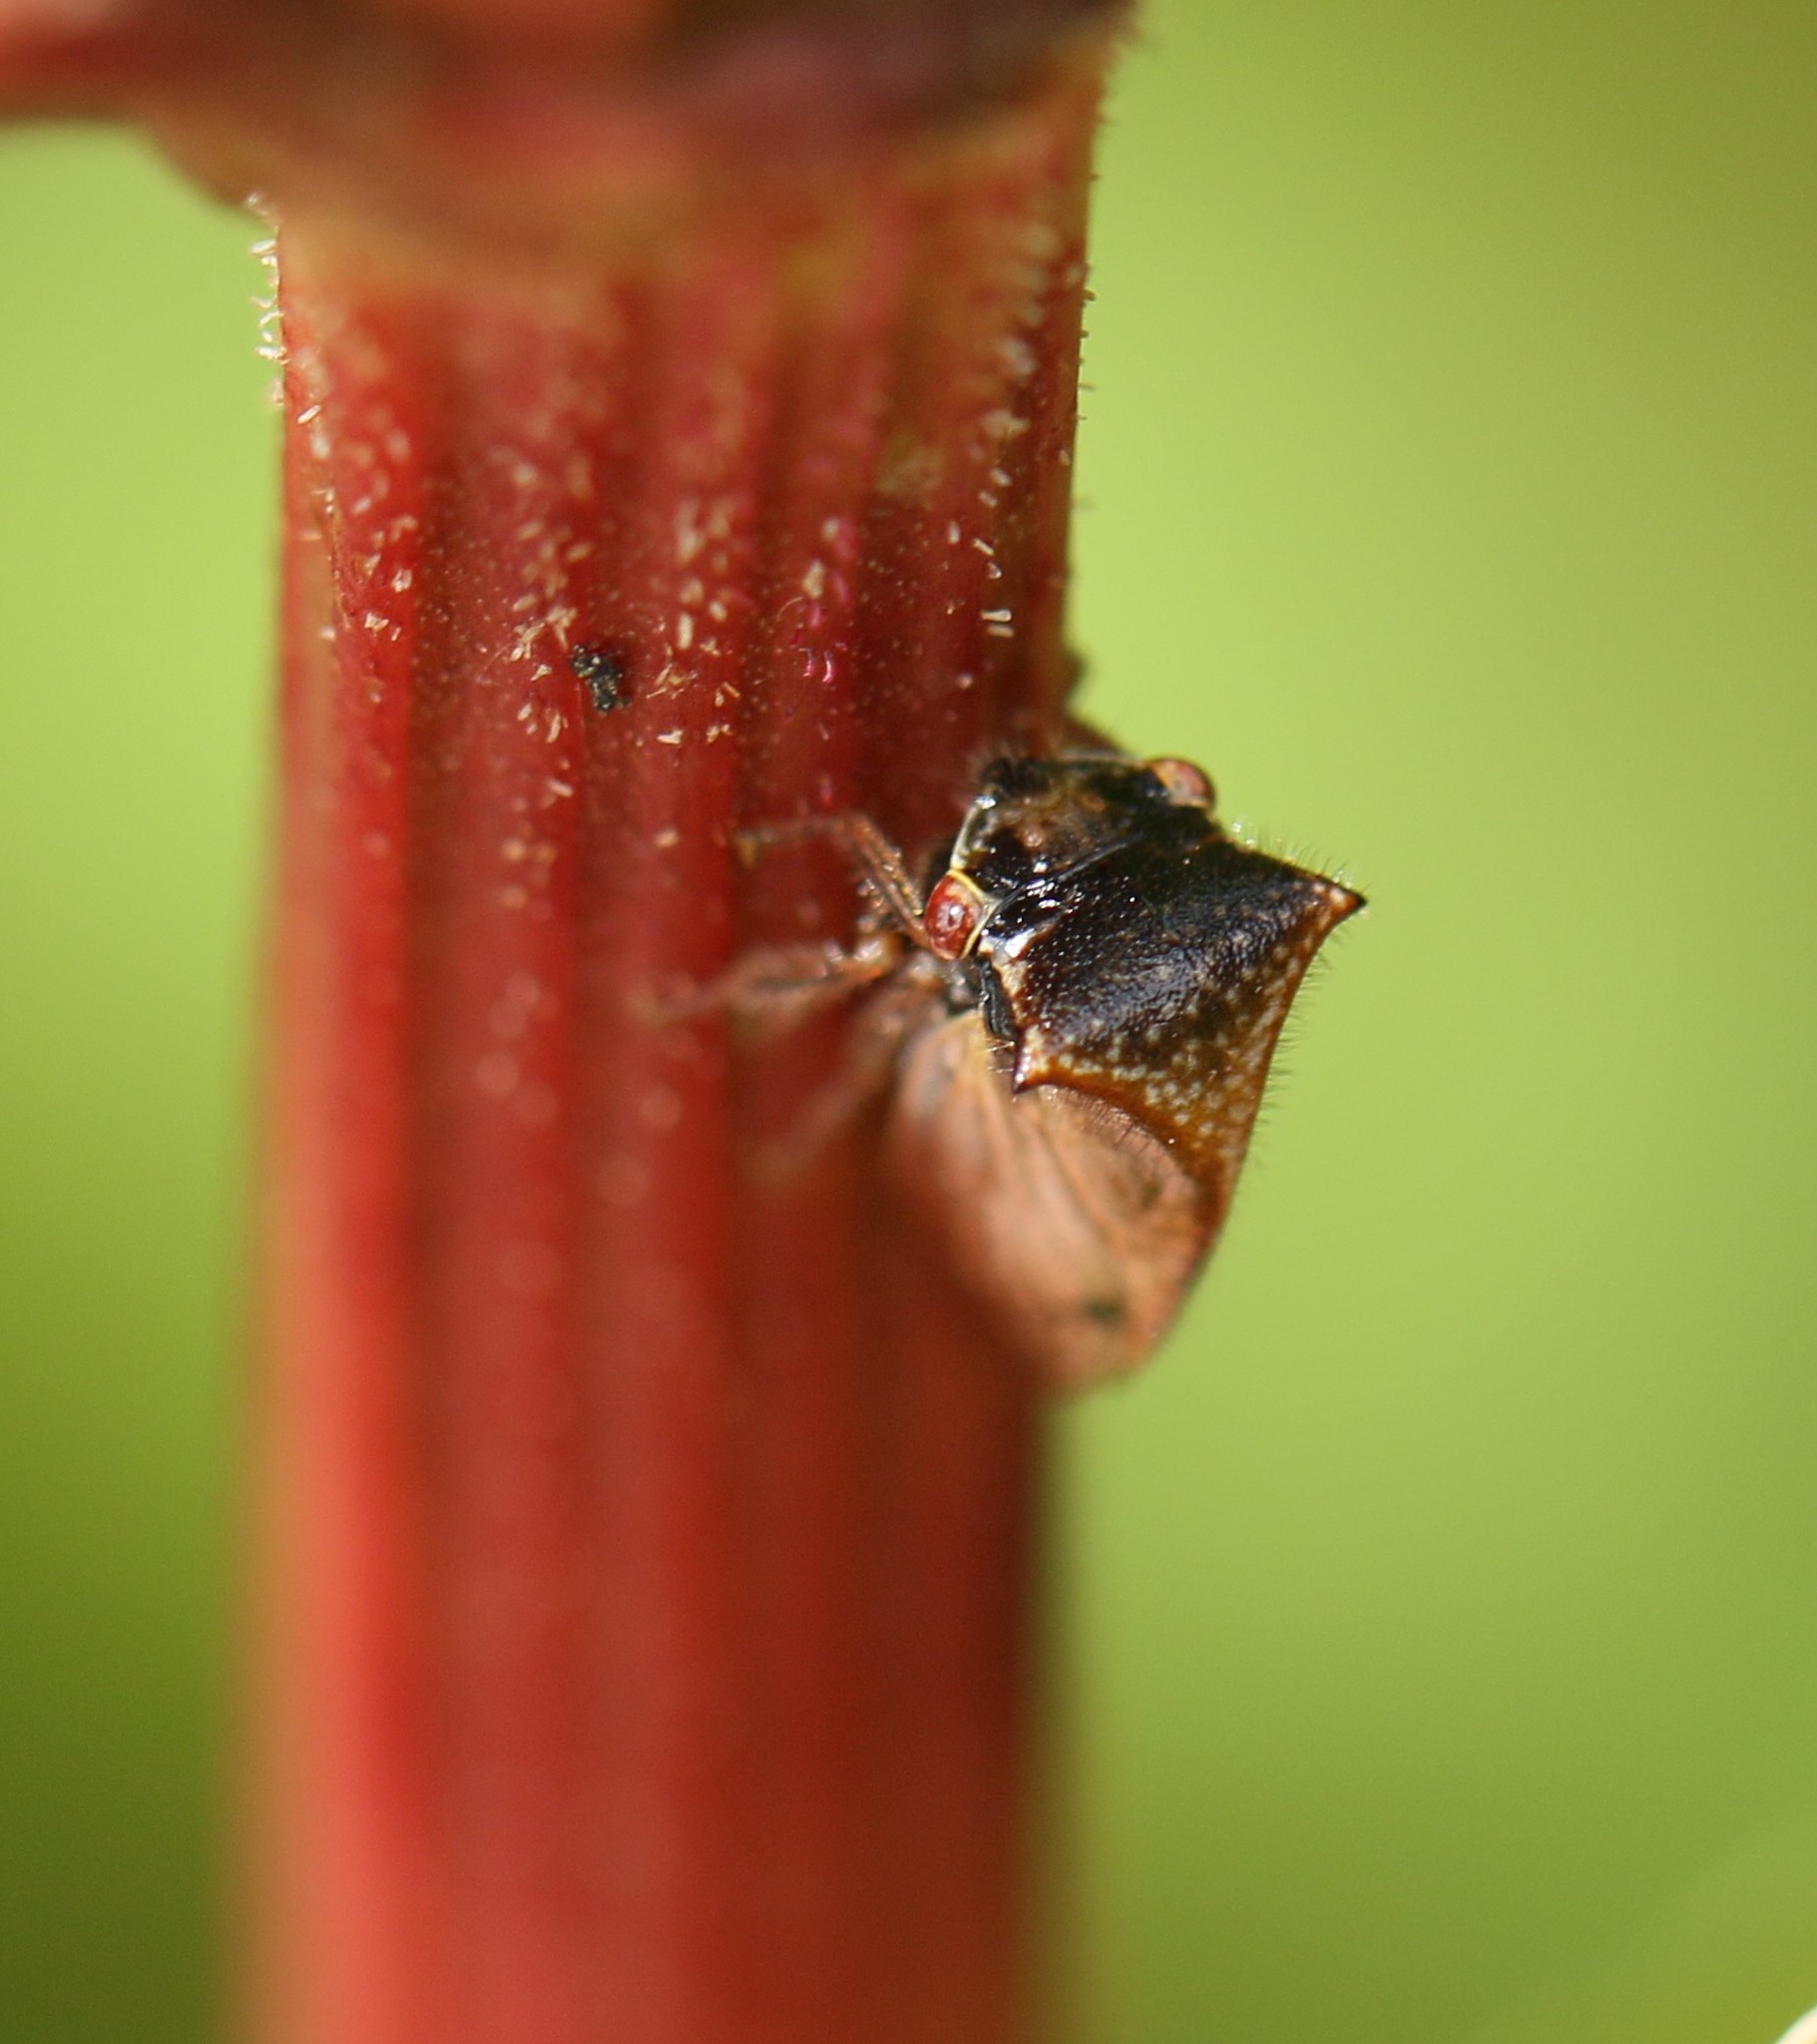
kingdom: Animalia
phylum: Arthropoda
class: Insecta
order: Hemiptera
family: Membracidae
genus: Stictocephala
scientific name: Stictocephala basalis
